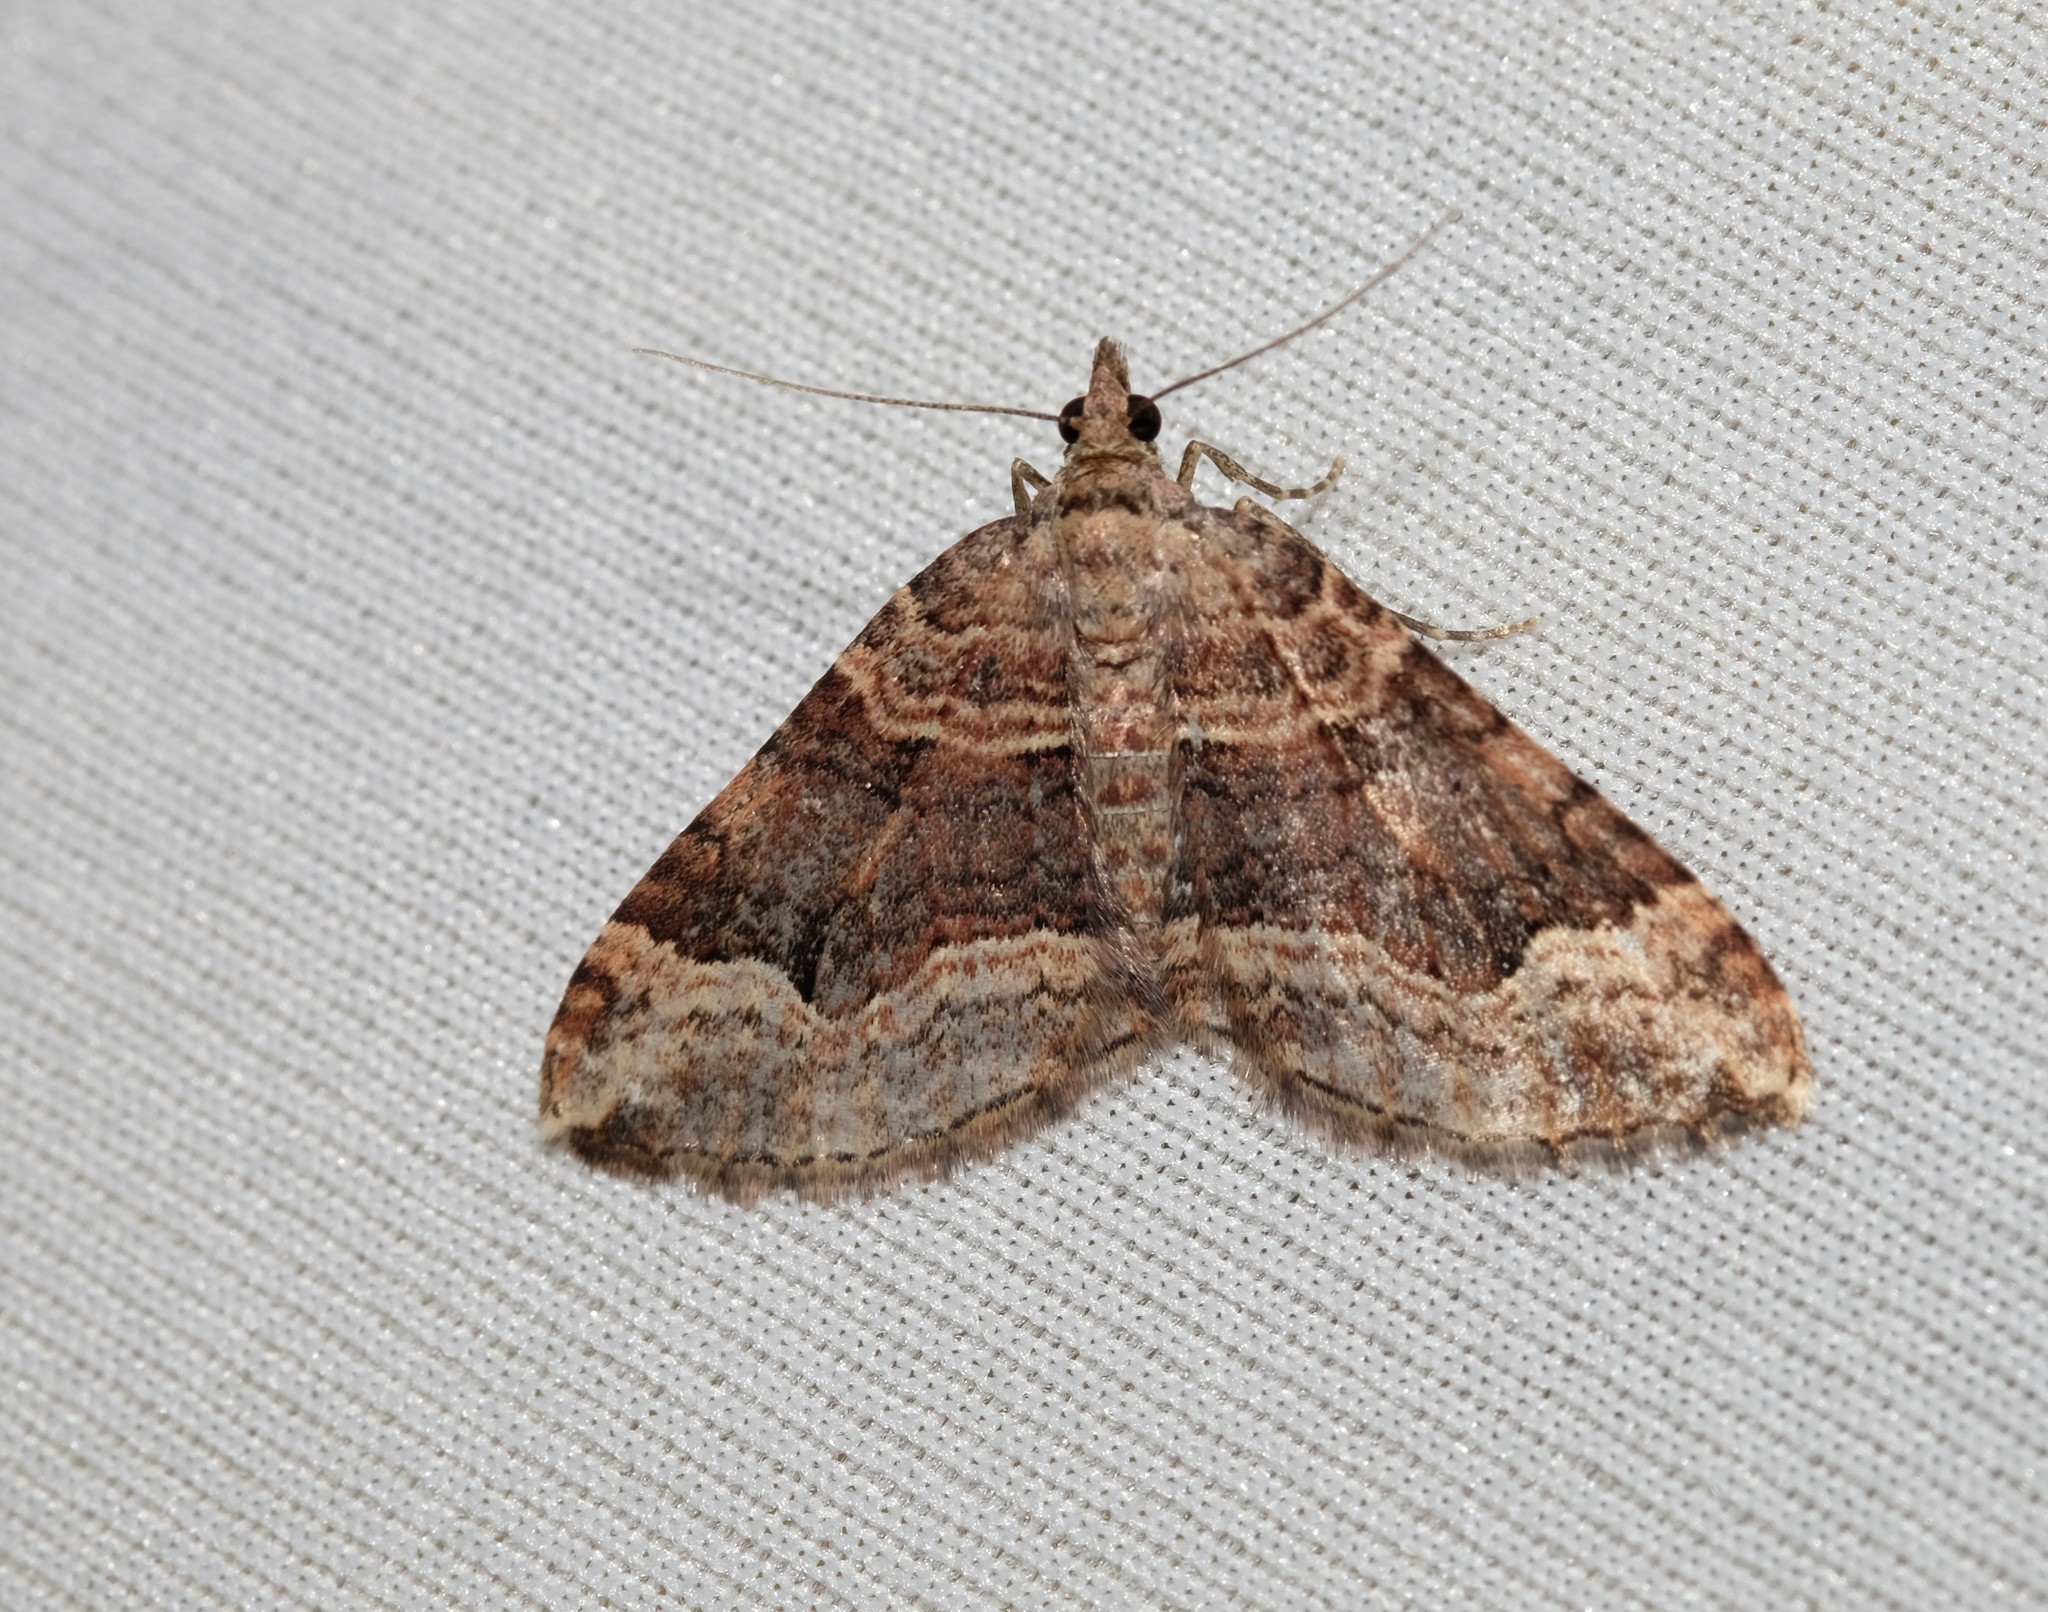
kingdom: Animalia
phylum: Arthropoda
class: Insecta
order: Lepidoptera
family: Geometridae
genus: Epyaxa
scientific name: Epyaxa subidaria
